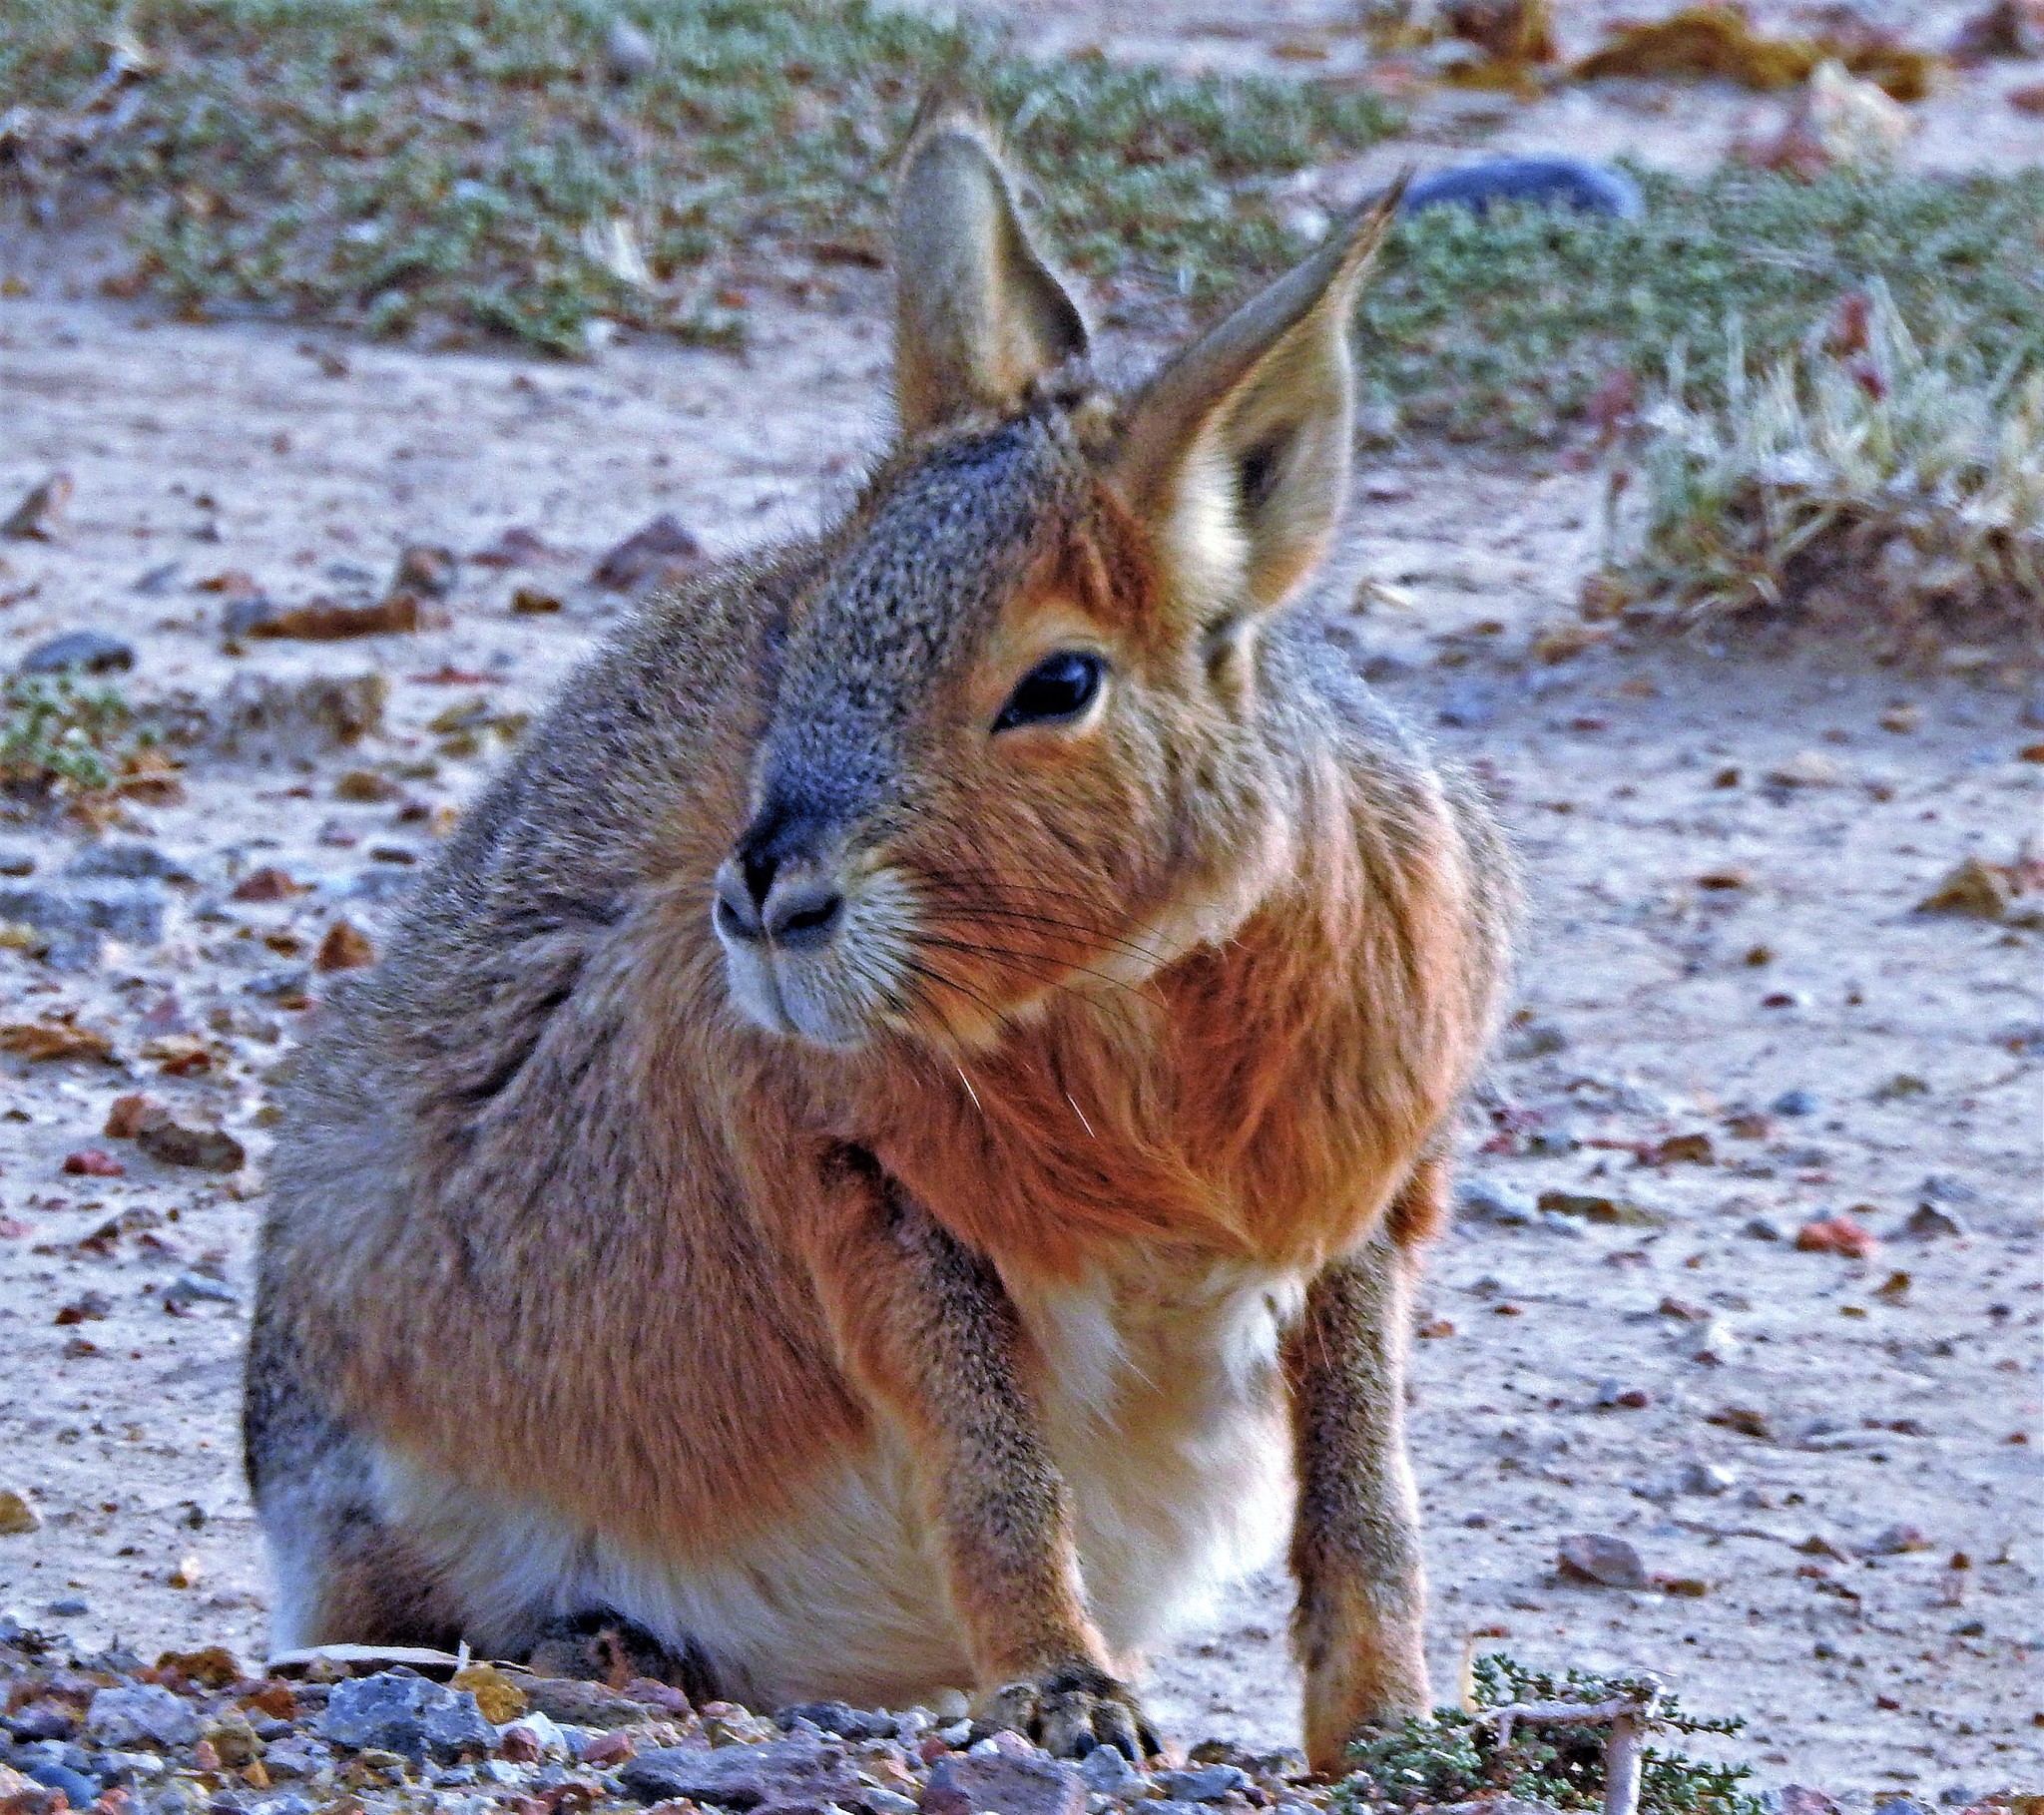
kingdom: Animalia
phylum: Chordata
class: Mammalia
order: Rodentia
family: Caviidae
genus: Dolichotis
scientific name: Dolichotis patagonum
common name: Patagonian mara
